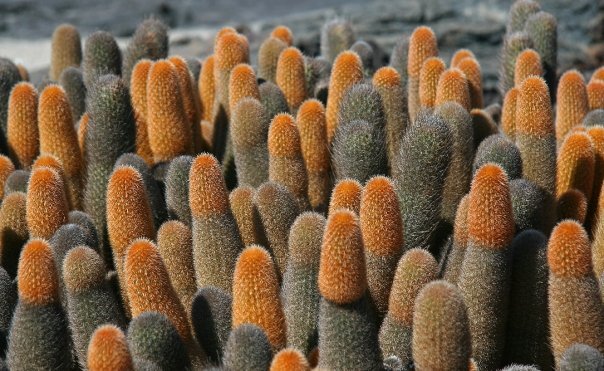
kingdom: Plantae
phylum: Tracheophyta
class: Magnoliopsida
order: Caryophyllales
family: Cactaceae
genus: Brachycereus
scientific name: Brachycereus nesioticus
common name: Lava cactus
